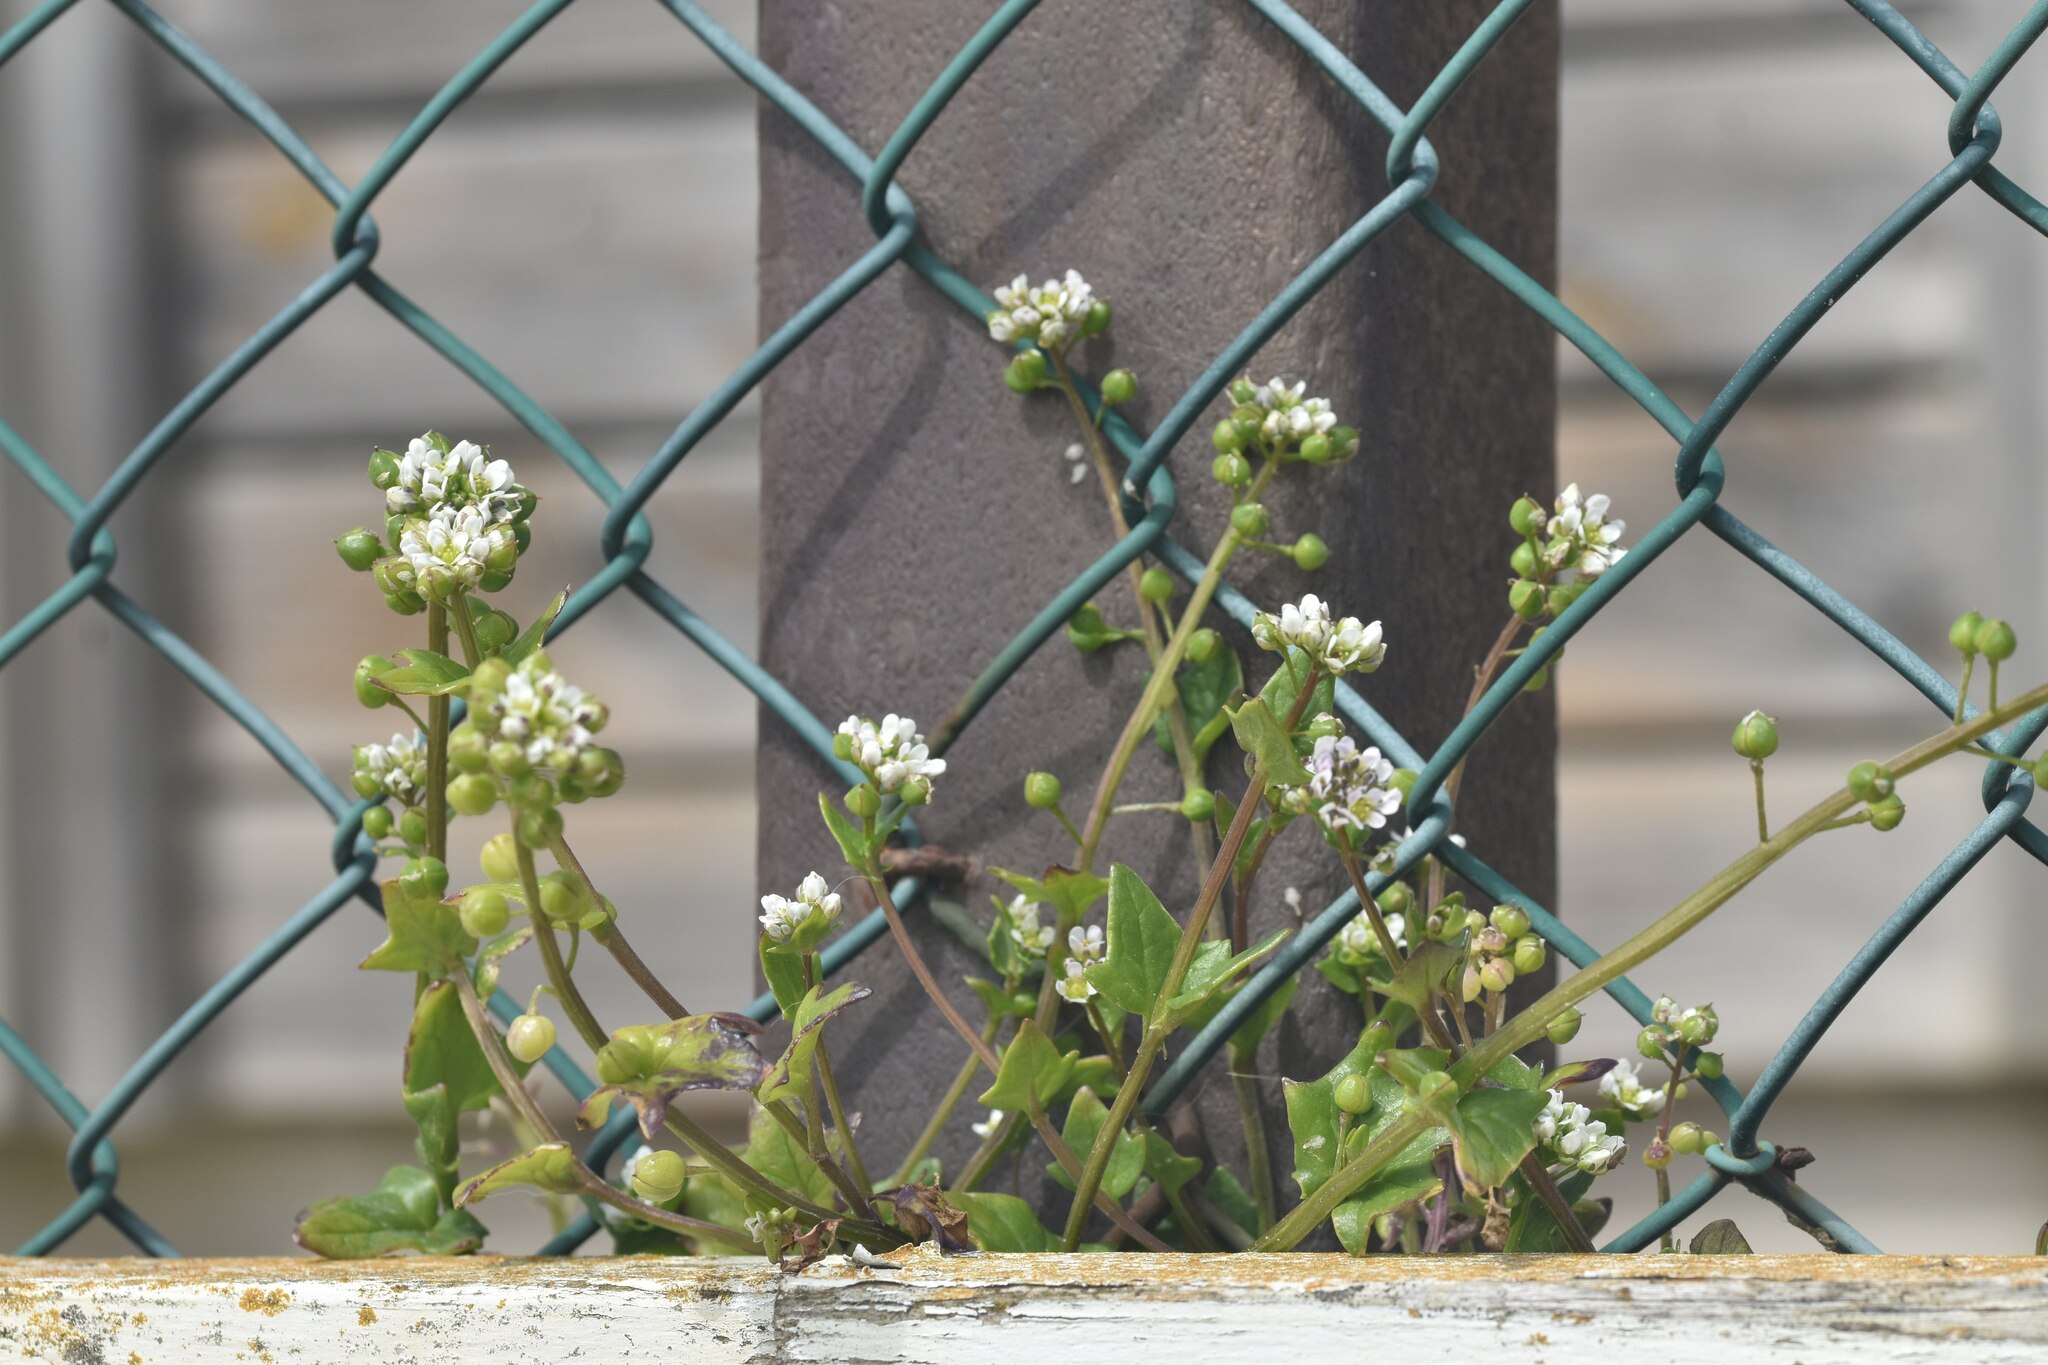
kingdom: Plantae
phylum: Tracheophyta
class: Magnoliopsida
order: Brassicales
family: Brassicaceae
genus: Cochlearia
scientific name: Cochlearia danica
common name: Early scurvygrass
